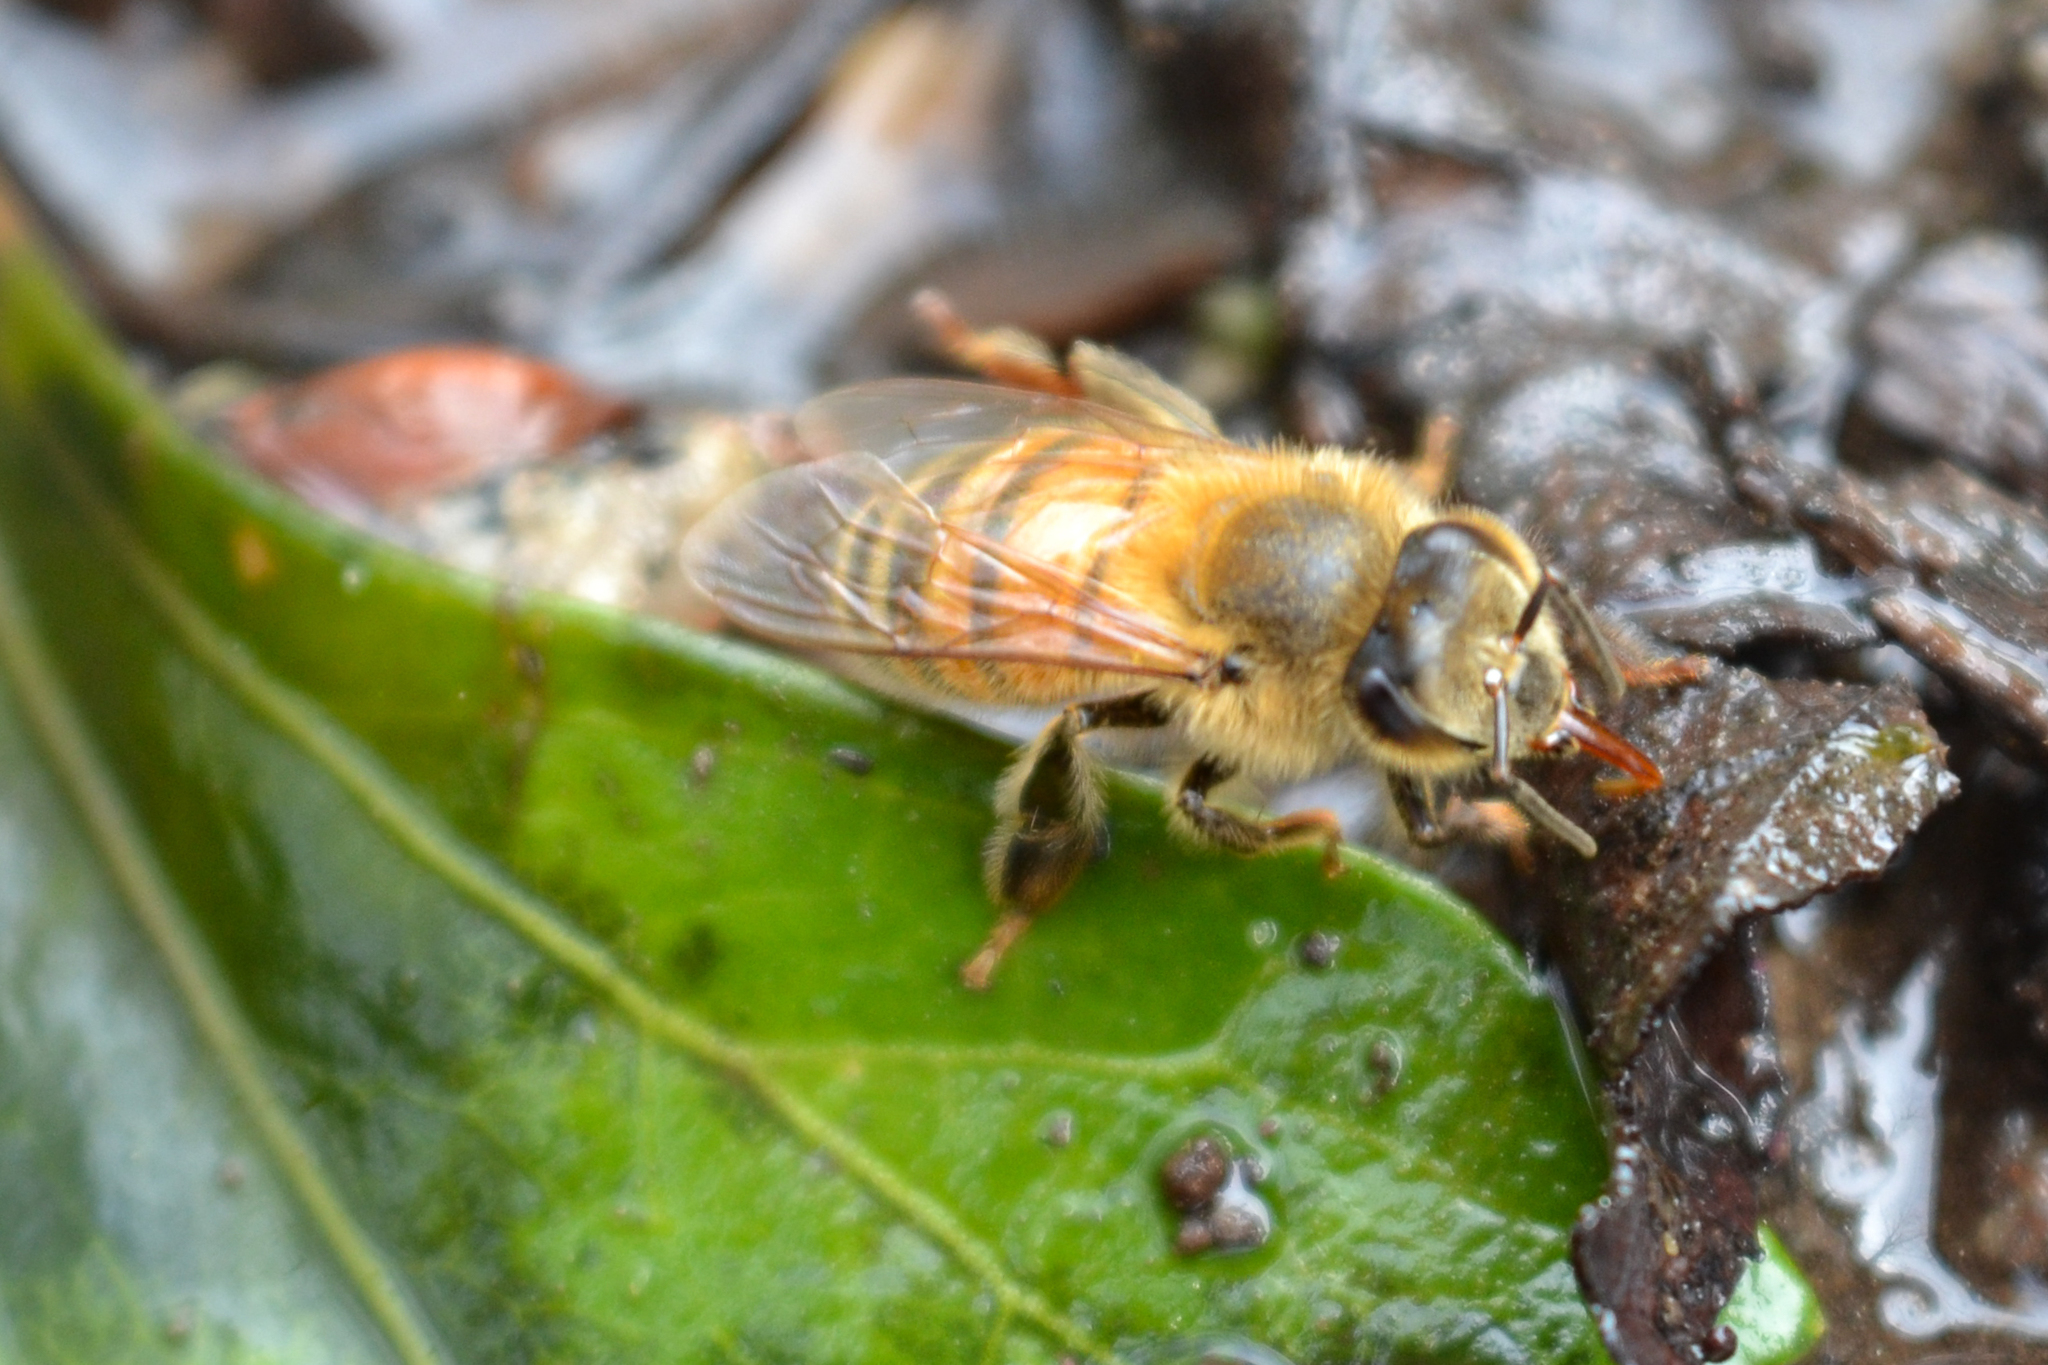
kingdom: Animalia
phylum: Arthropoda
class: Insecta
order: Hymenoptera
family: Apidae
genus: Apis
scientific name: Apis mellifera
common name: Honey bee
